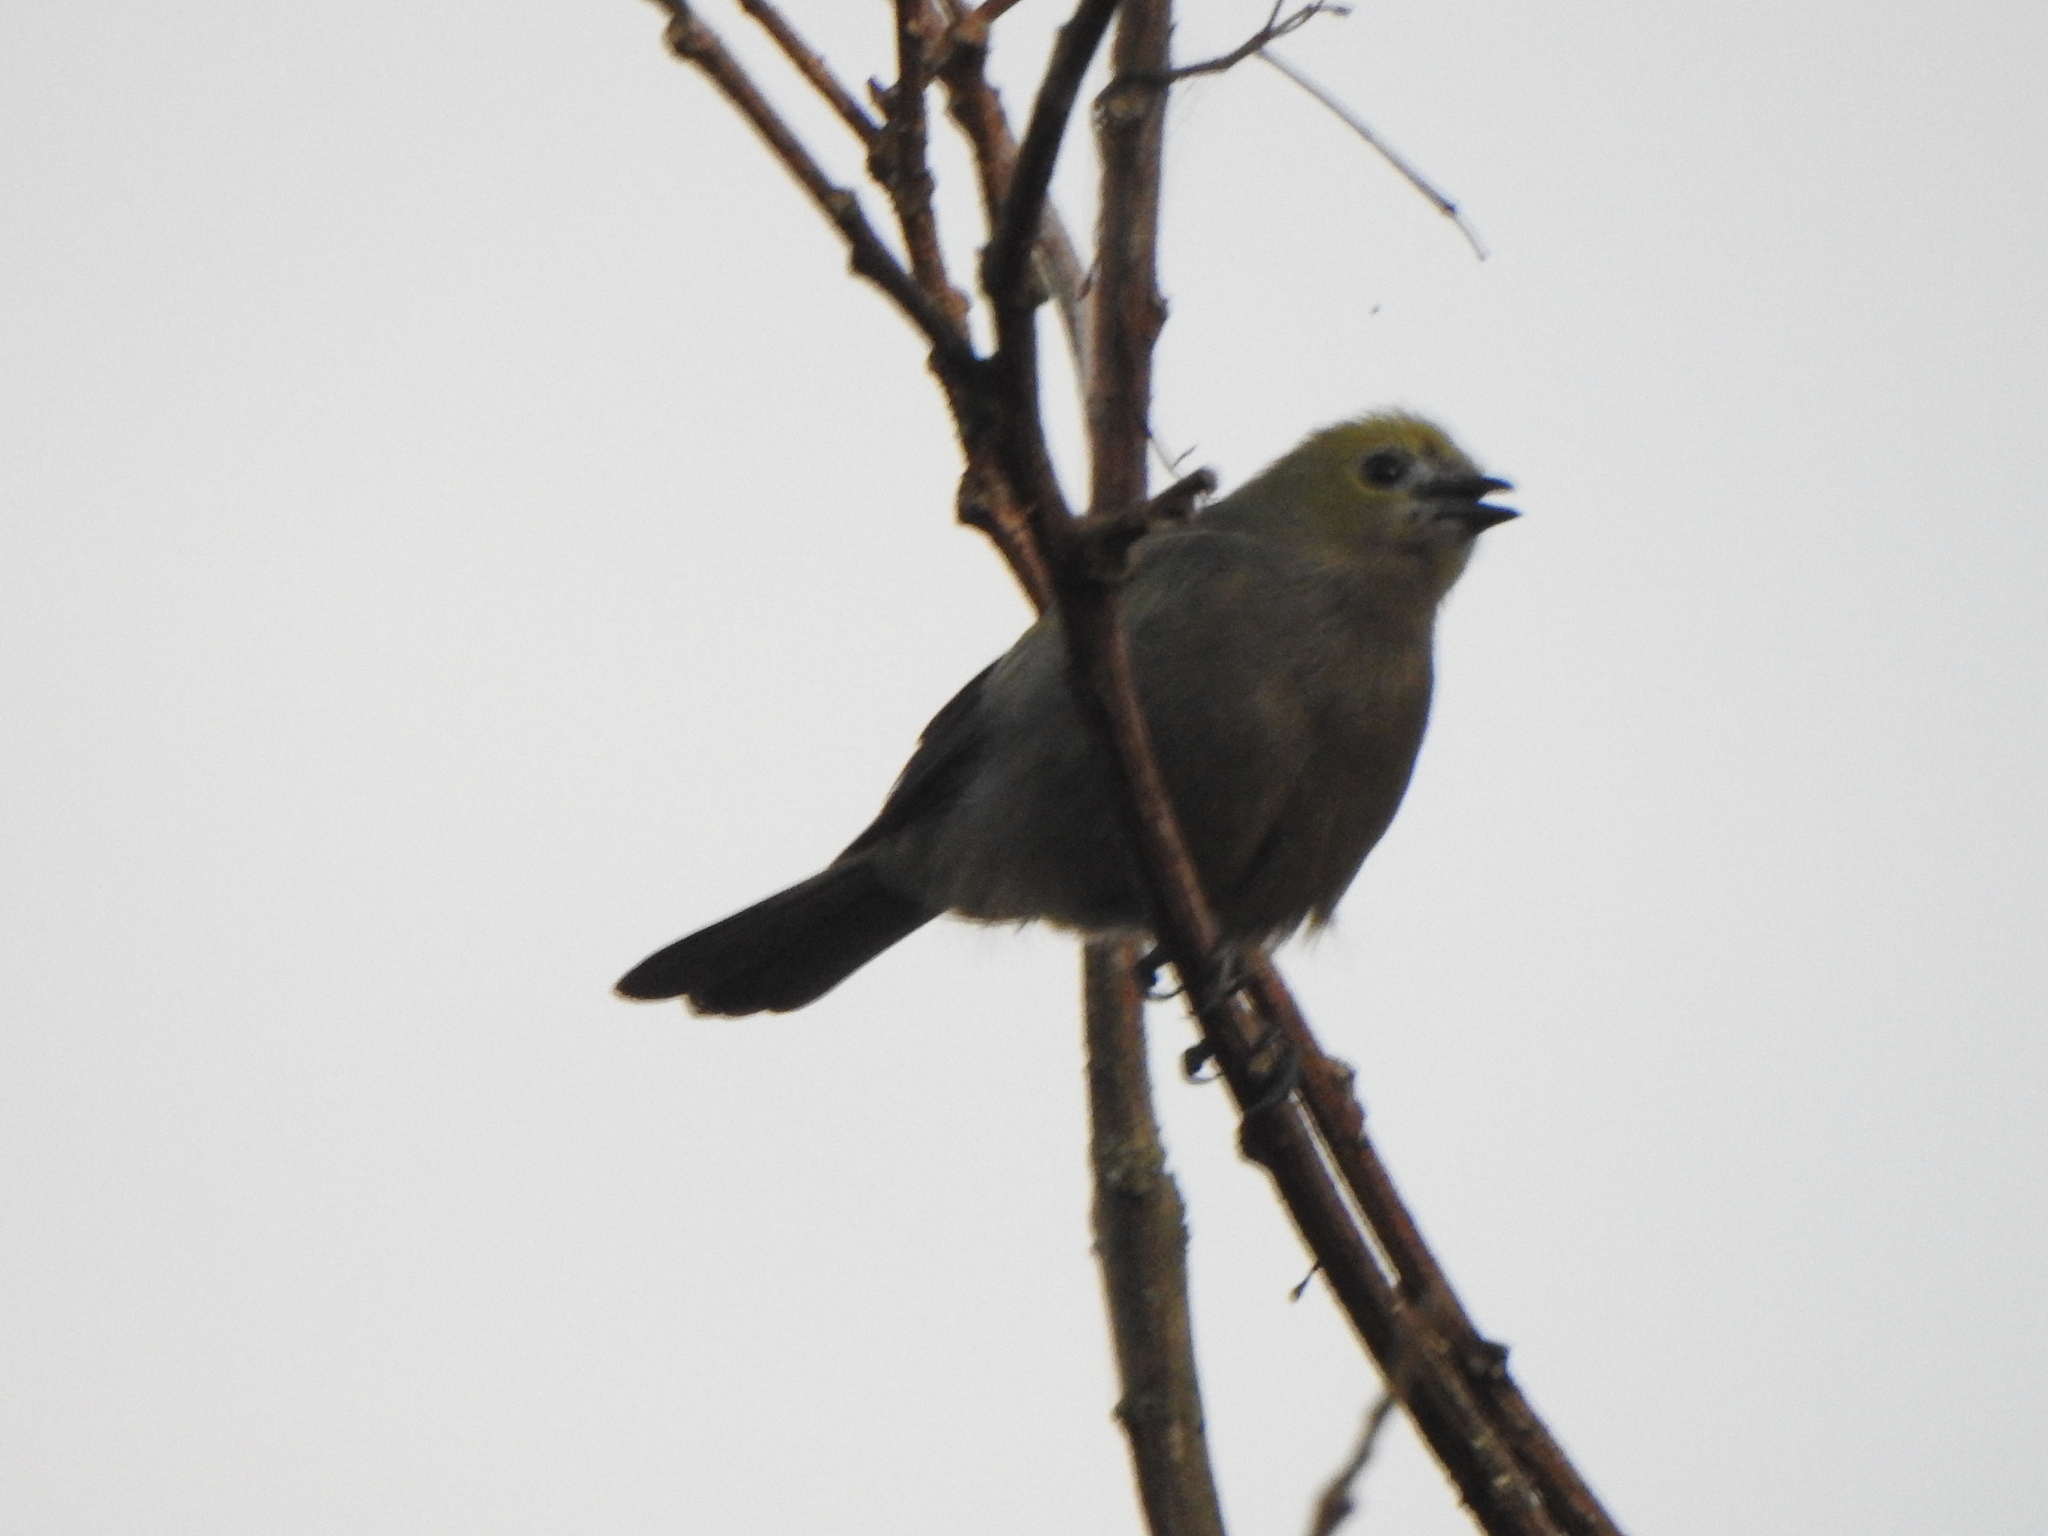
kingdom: Animalia
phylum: Chordata
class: Aves
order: Passeriformes
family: Thraupidae
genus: Thraupis
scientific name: Thraupis palmarum
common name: Palm tanager
